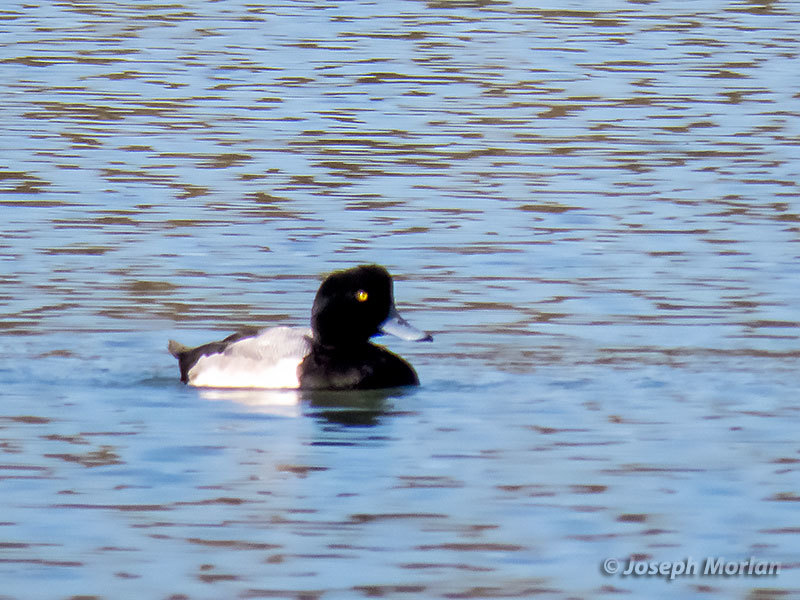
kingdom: Animalia
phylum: Chordata
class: Aves
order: Anseriformes
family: Anatidae
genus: Aythya
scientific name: Aythya marila
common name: Greater scaup
